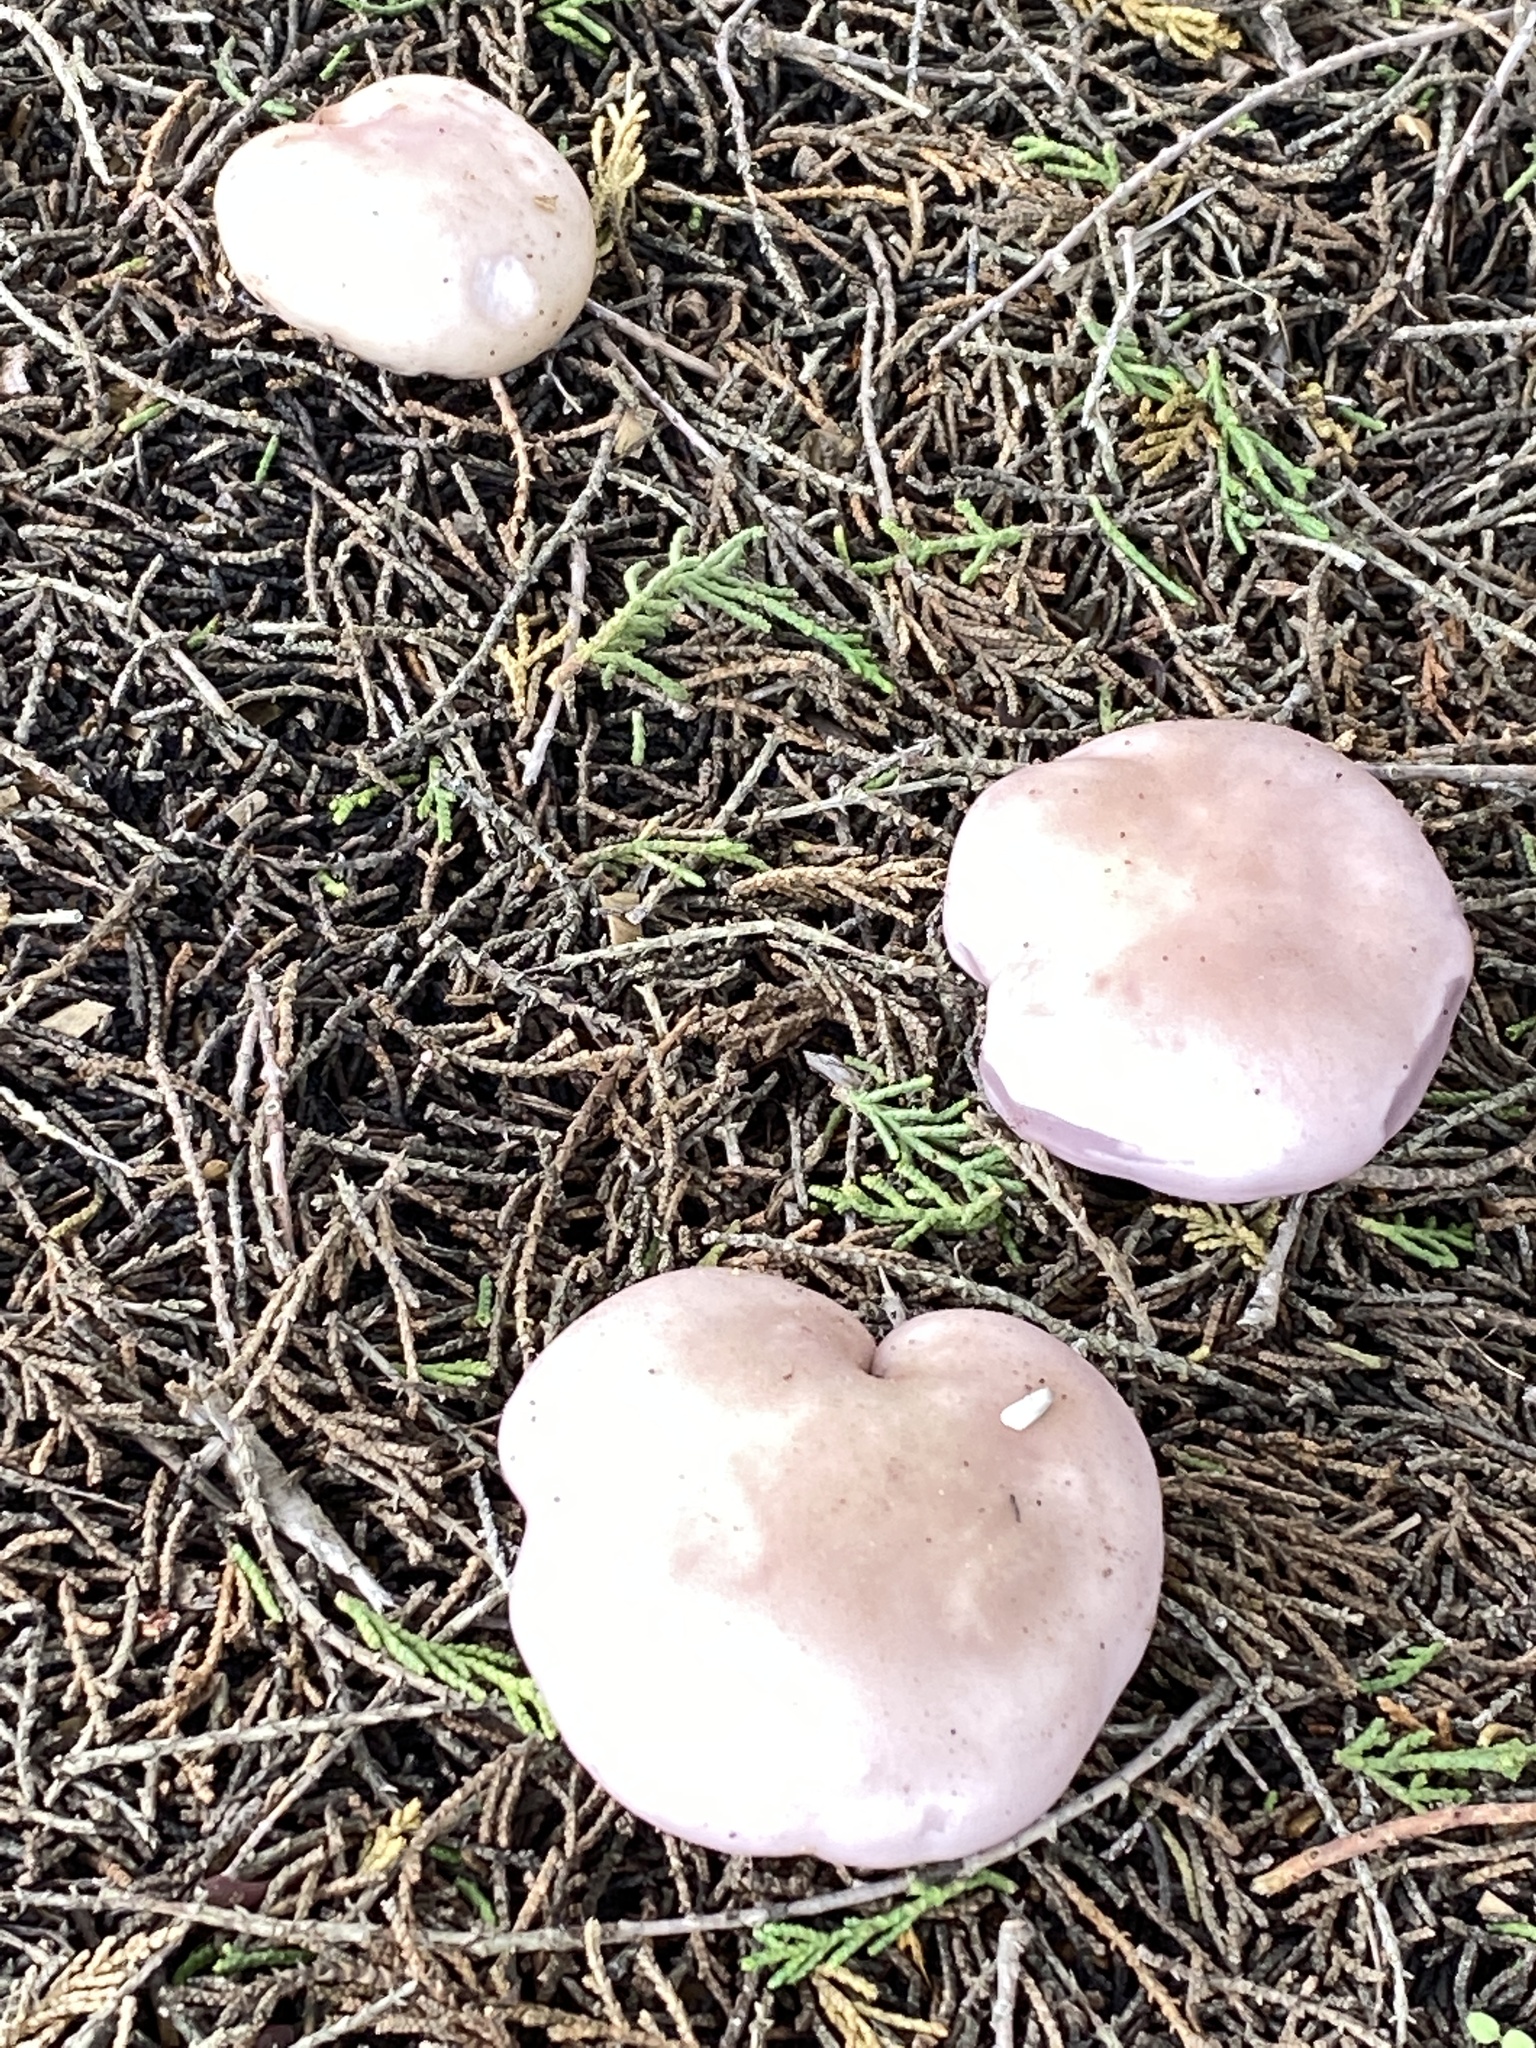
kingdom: Fungi
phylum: Basidiomycota
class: Agaricomycetes
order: Agaricales
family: Tricholomataceae
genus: Collybia
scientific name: Collybia
